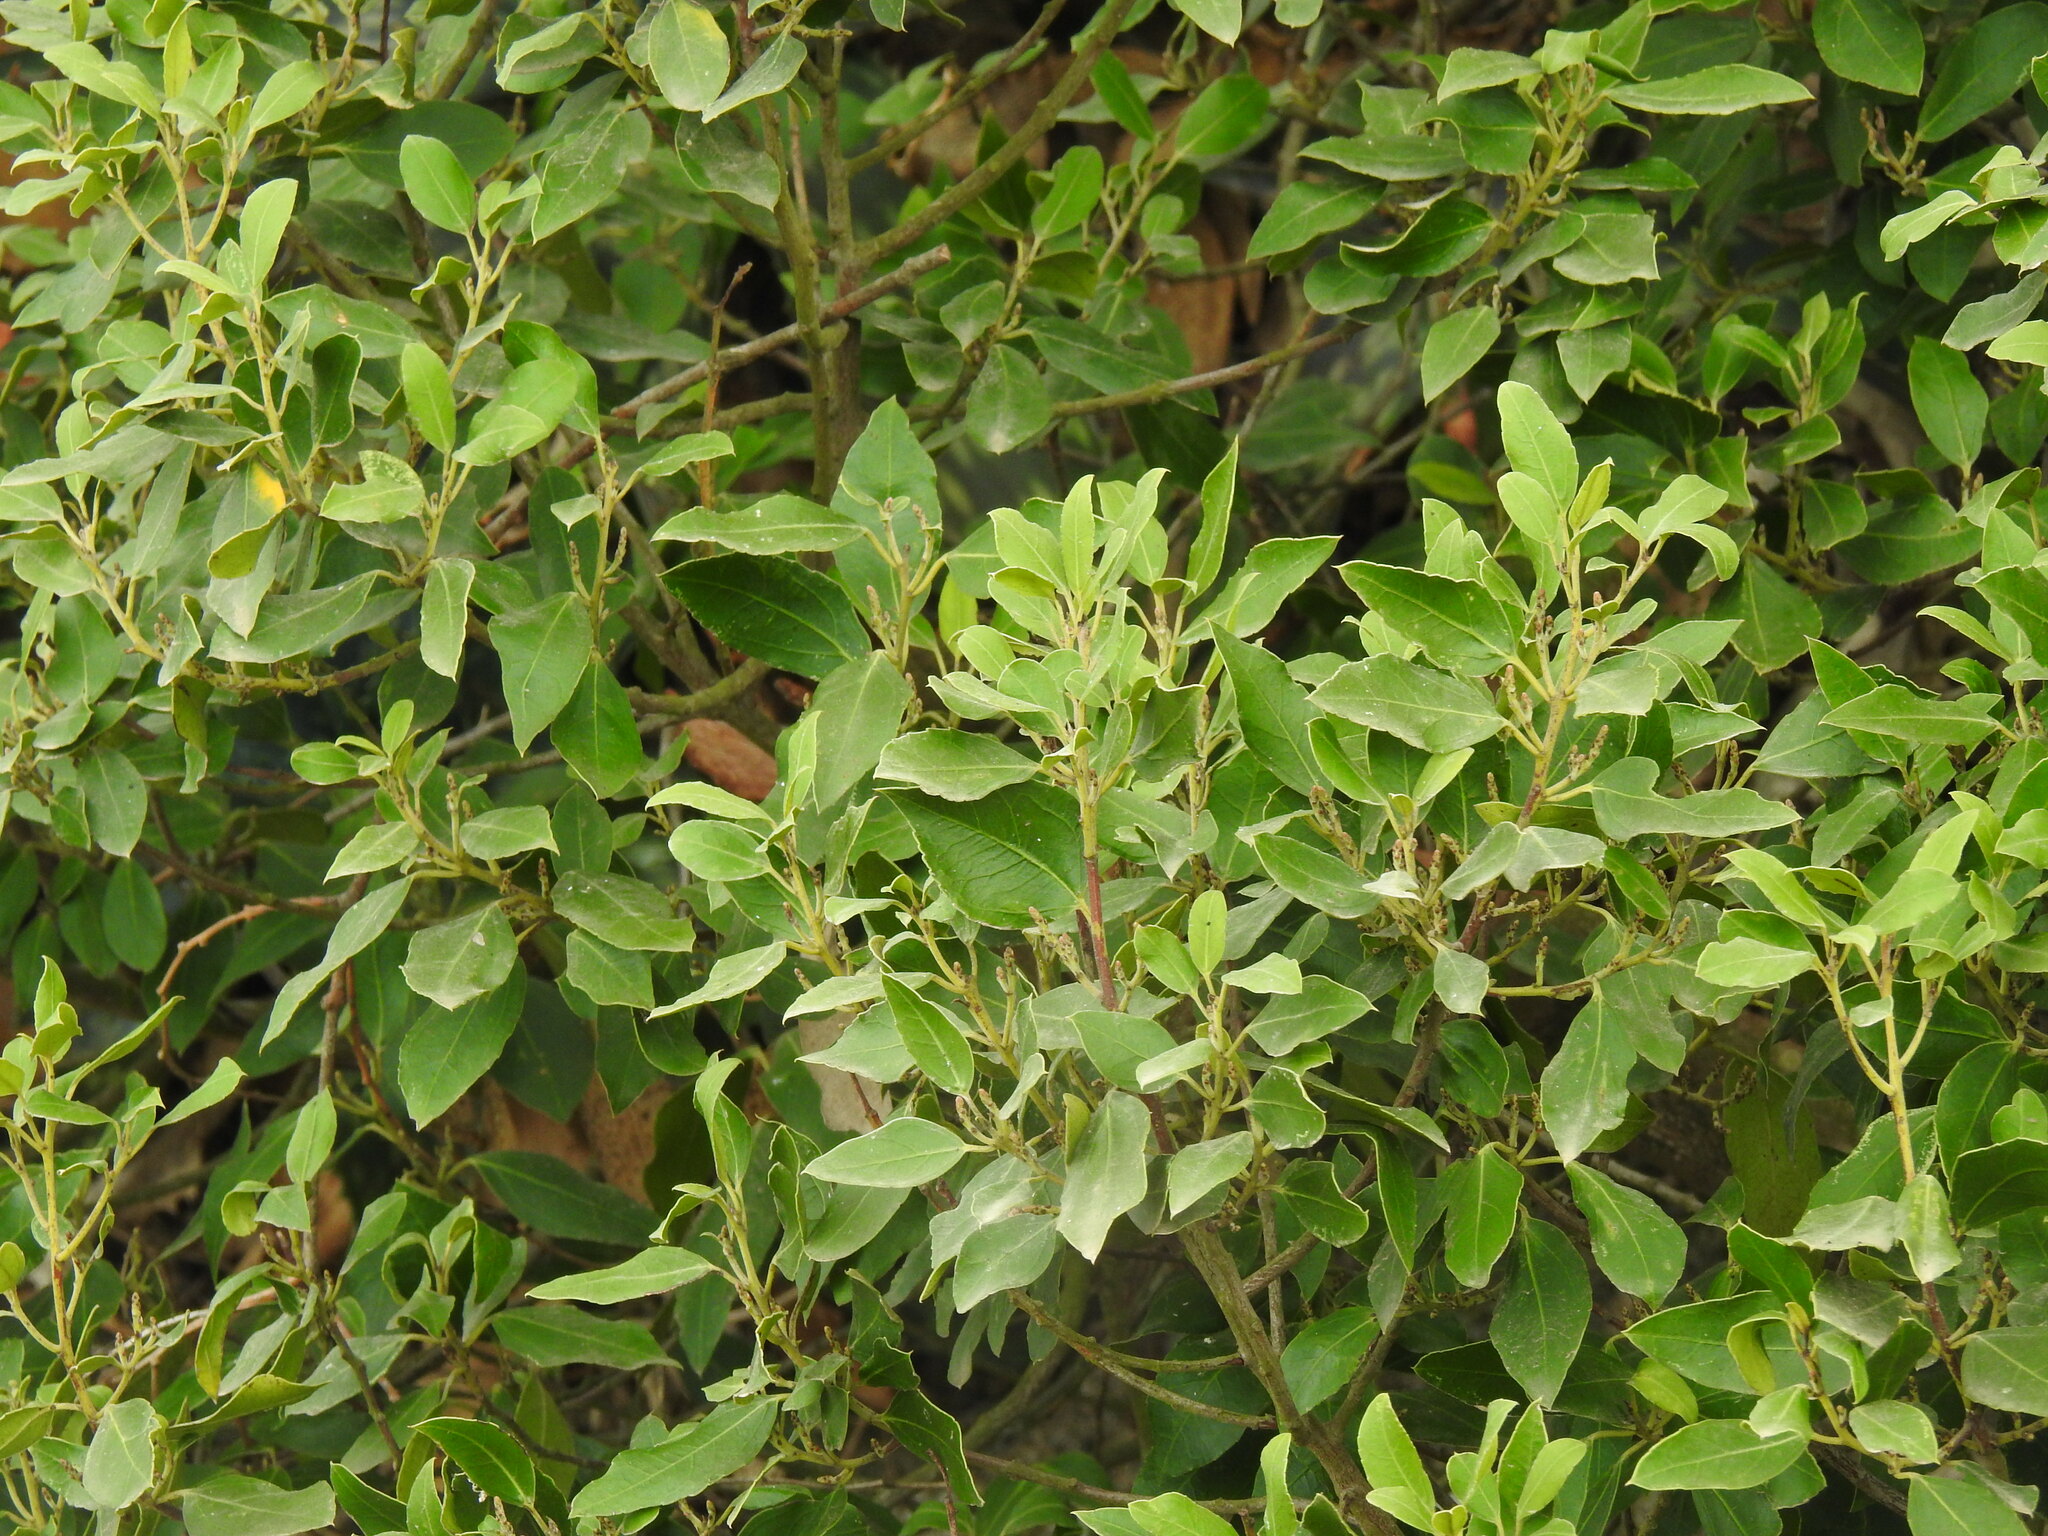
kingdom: Plantae
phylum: Tracheophyta
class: Magnoliopsida
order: Rosales
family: Rhamnaceae
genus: Rhamnus
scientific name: Rhamnus alaternus
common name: Mediterranean buckthorn
